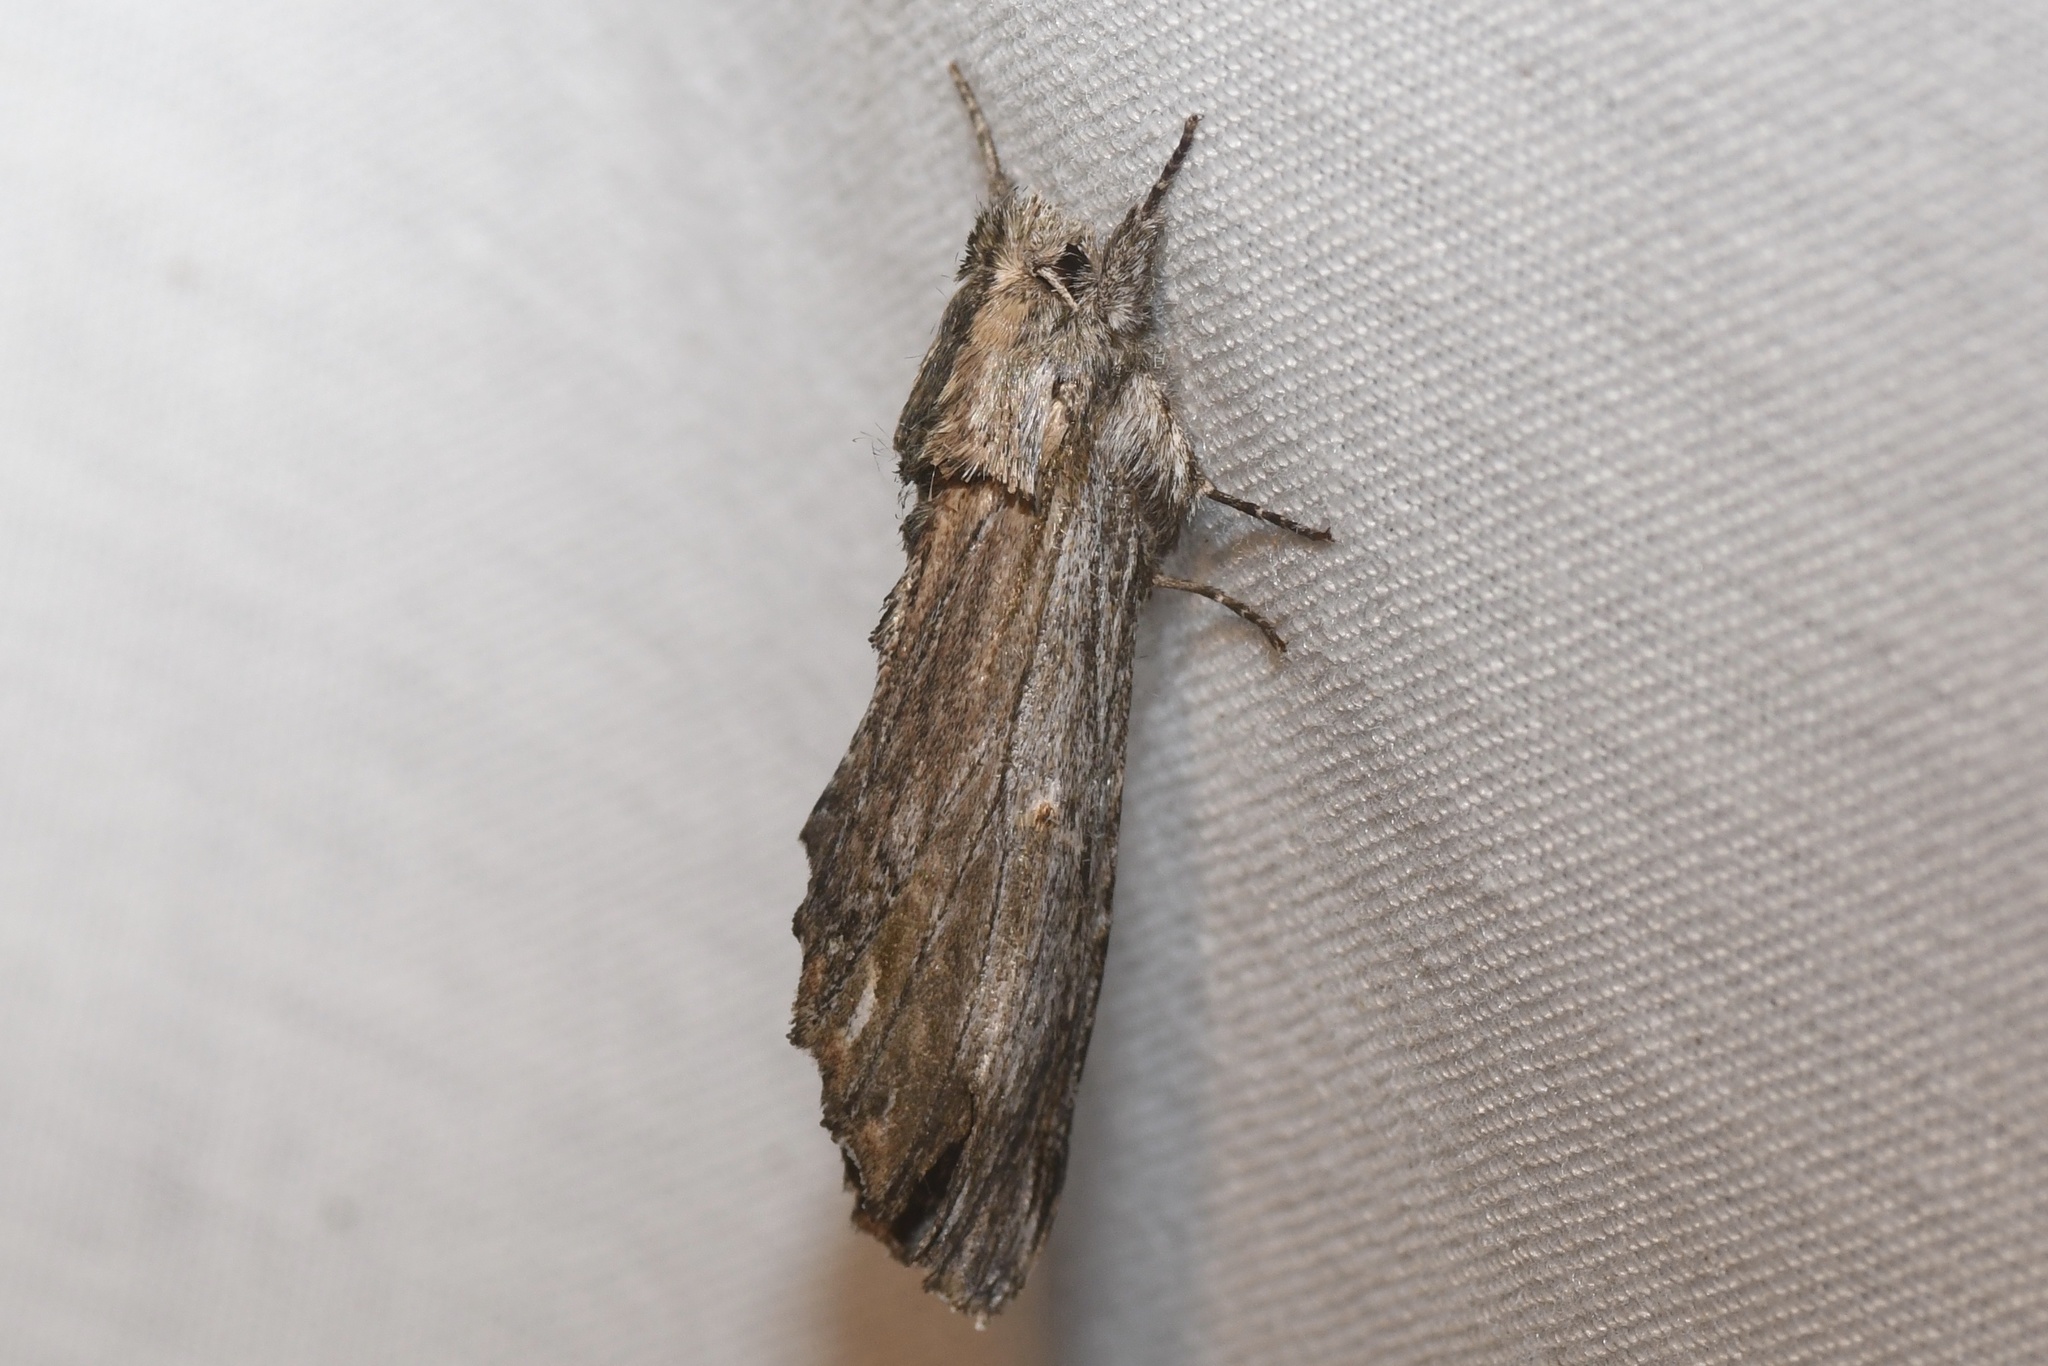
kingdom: Animalia
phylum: Arthropoda
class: Insecta
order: Lepidoptera
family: Notodontidae
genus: Oligocentria
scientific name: Oligocentria Ianassa lignicolor
